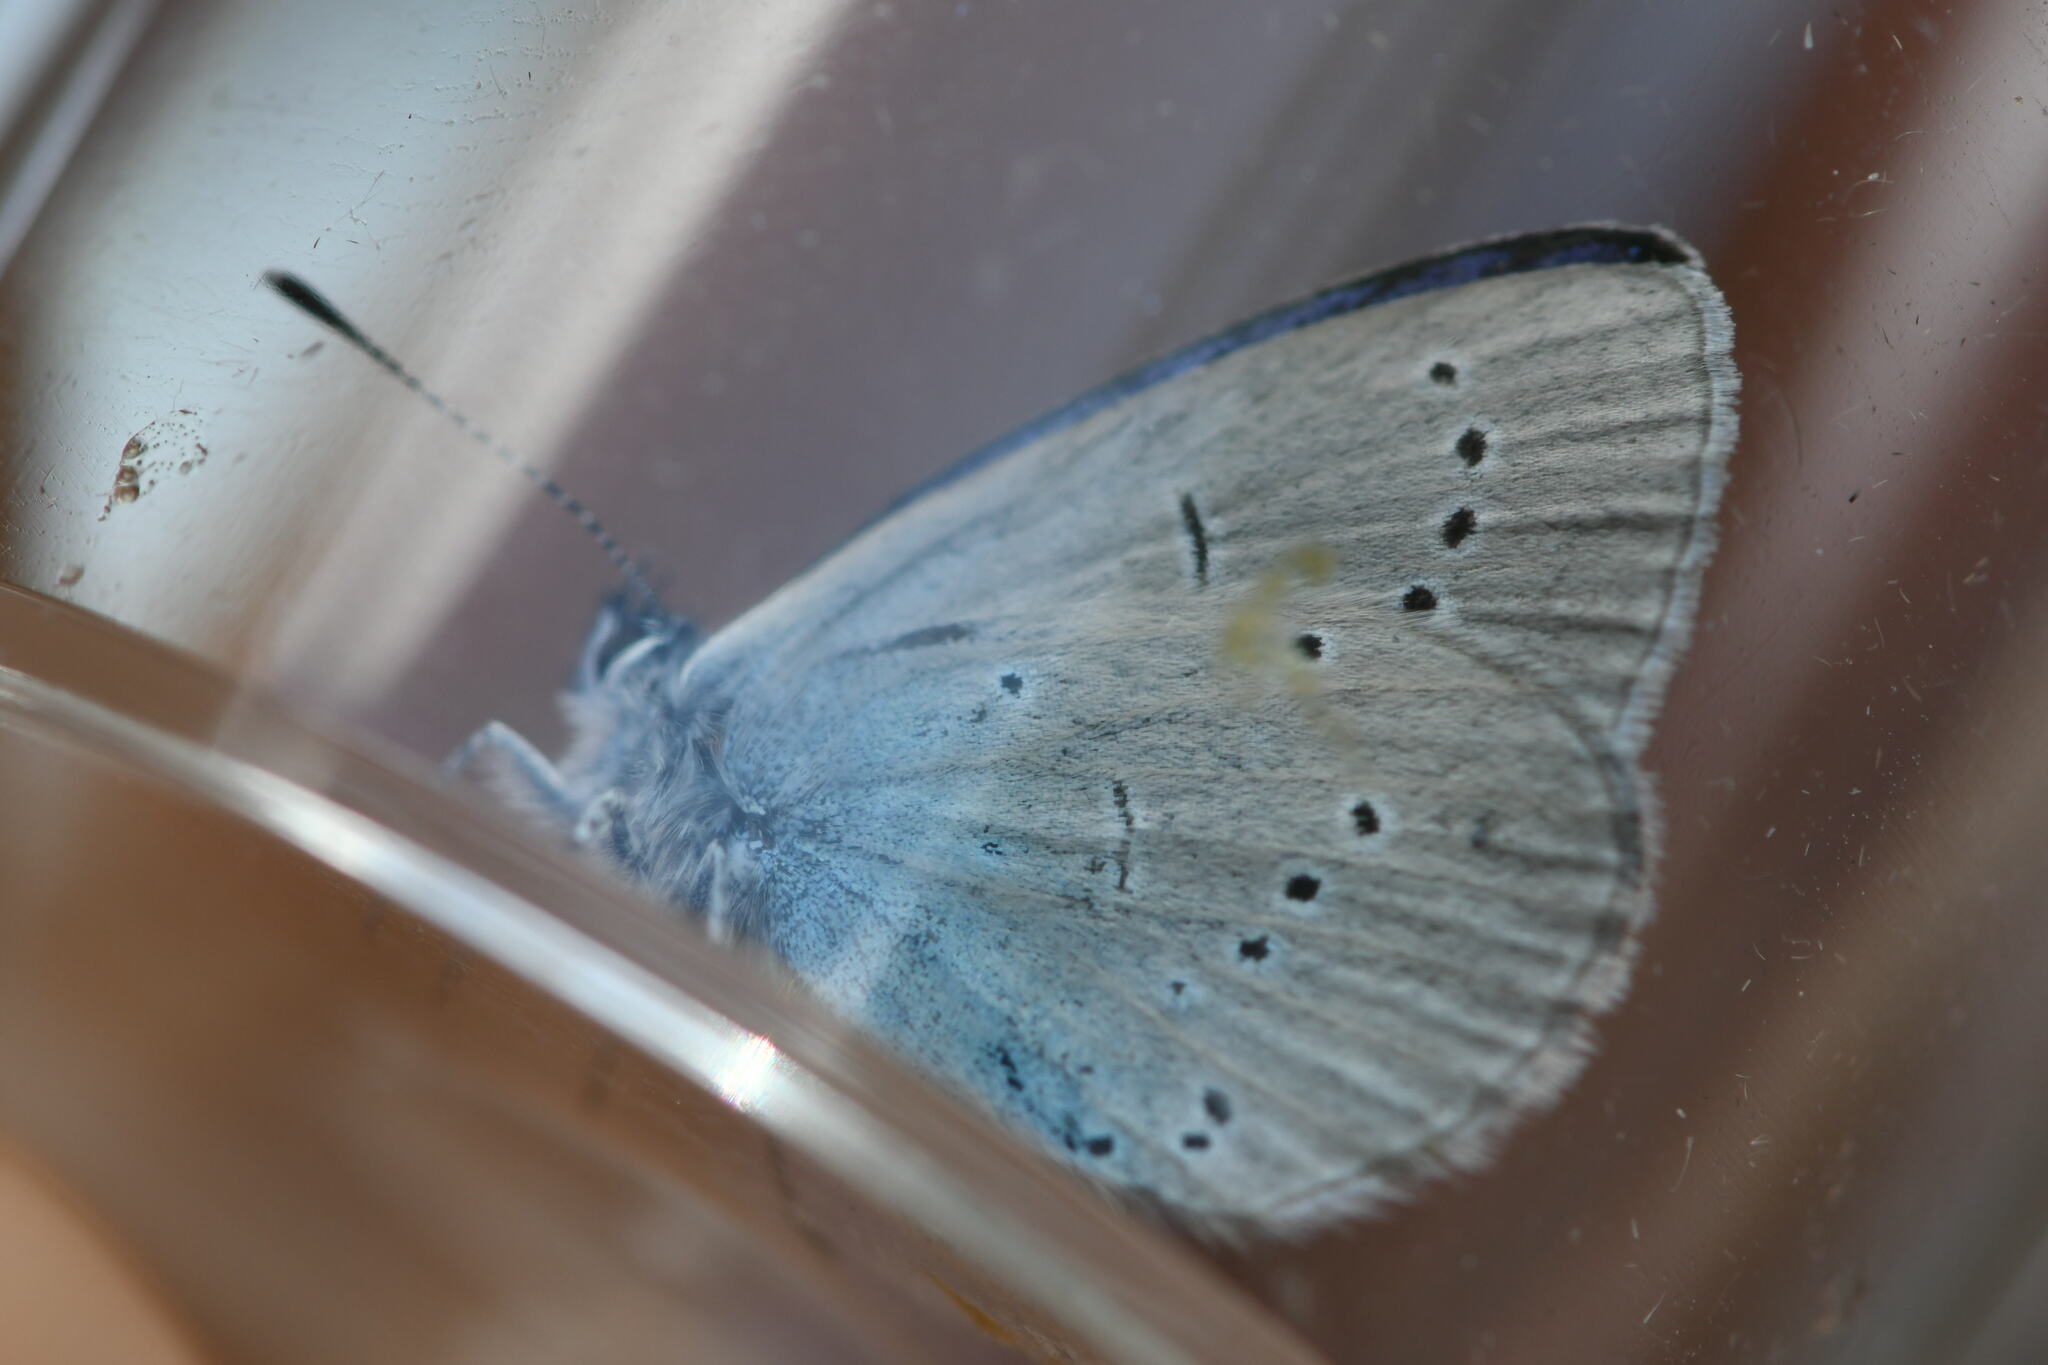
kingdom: Animalia
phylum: Arthropoda
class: Insecta
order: Lepidoptera
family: Lycaenidae
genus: Everes
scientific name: Everes sebrus
